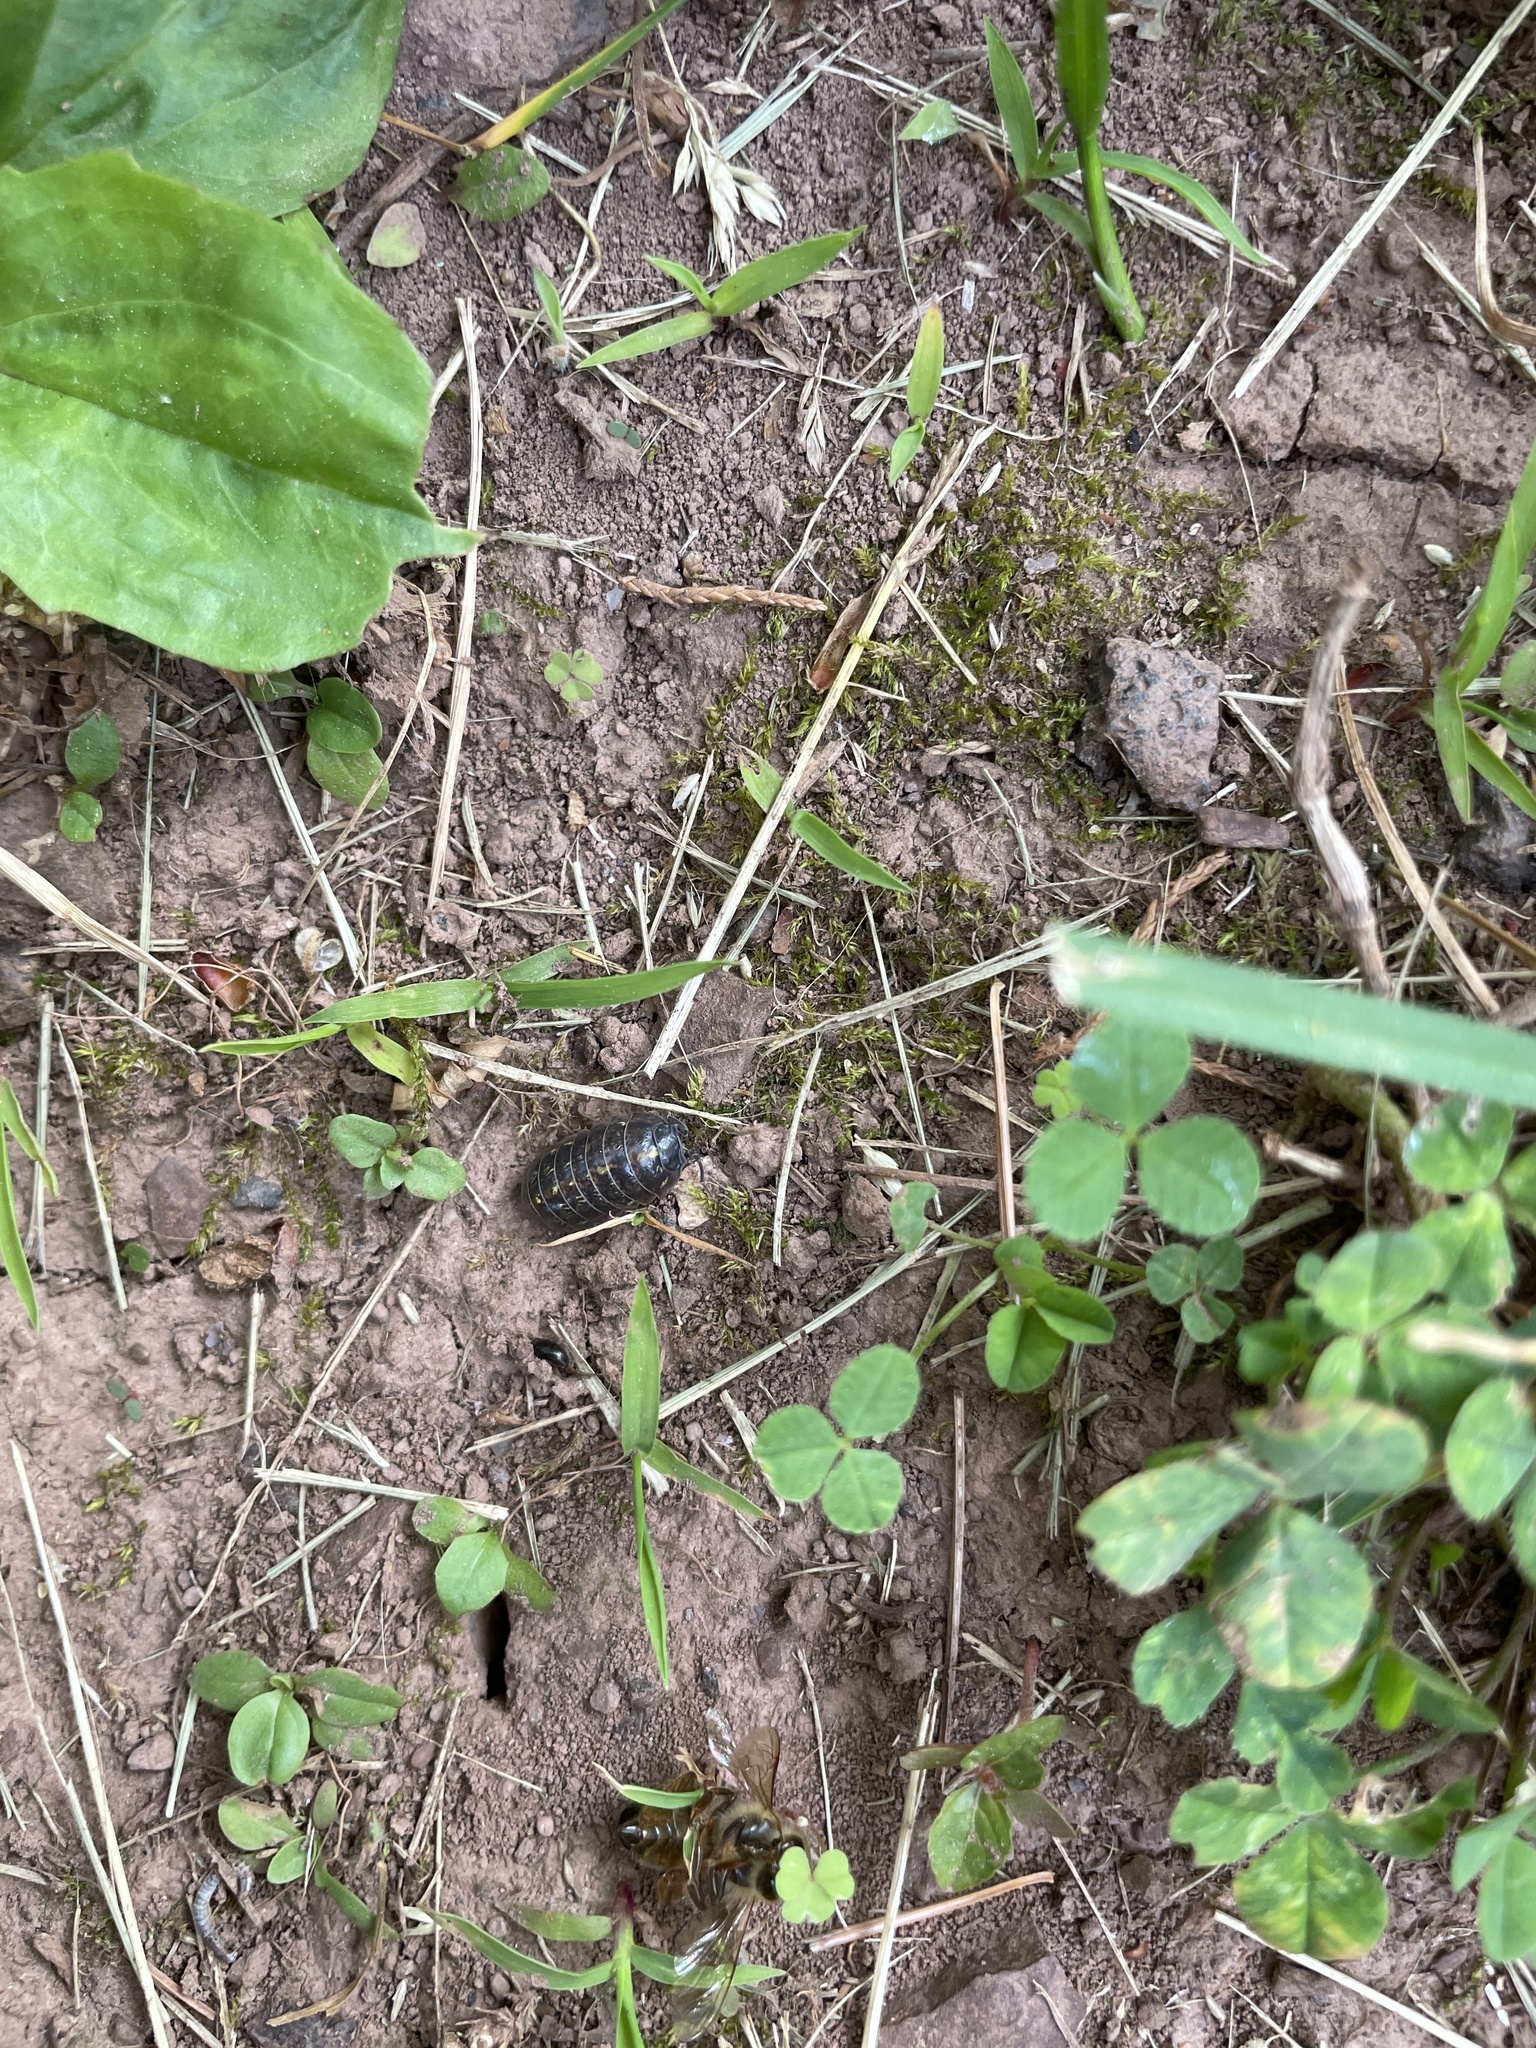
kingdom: Animalia
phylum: Arthropoda
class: Malacostraca
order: Isopoda
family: Armadillidiidae
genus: Armadillidium
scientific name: Armadillidium vulgare
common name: Common pill woodlouse
